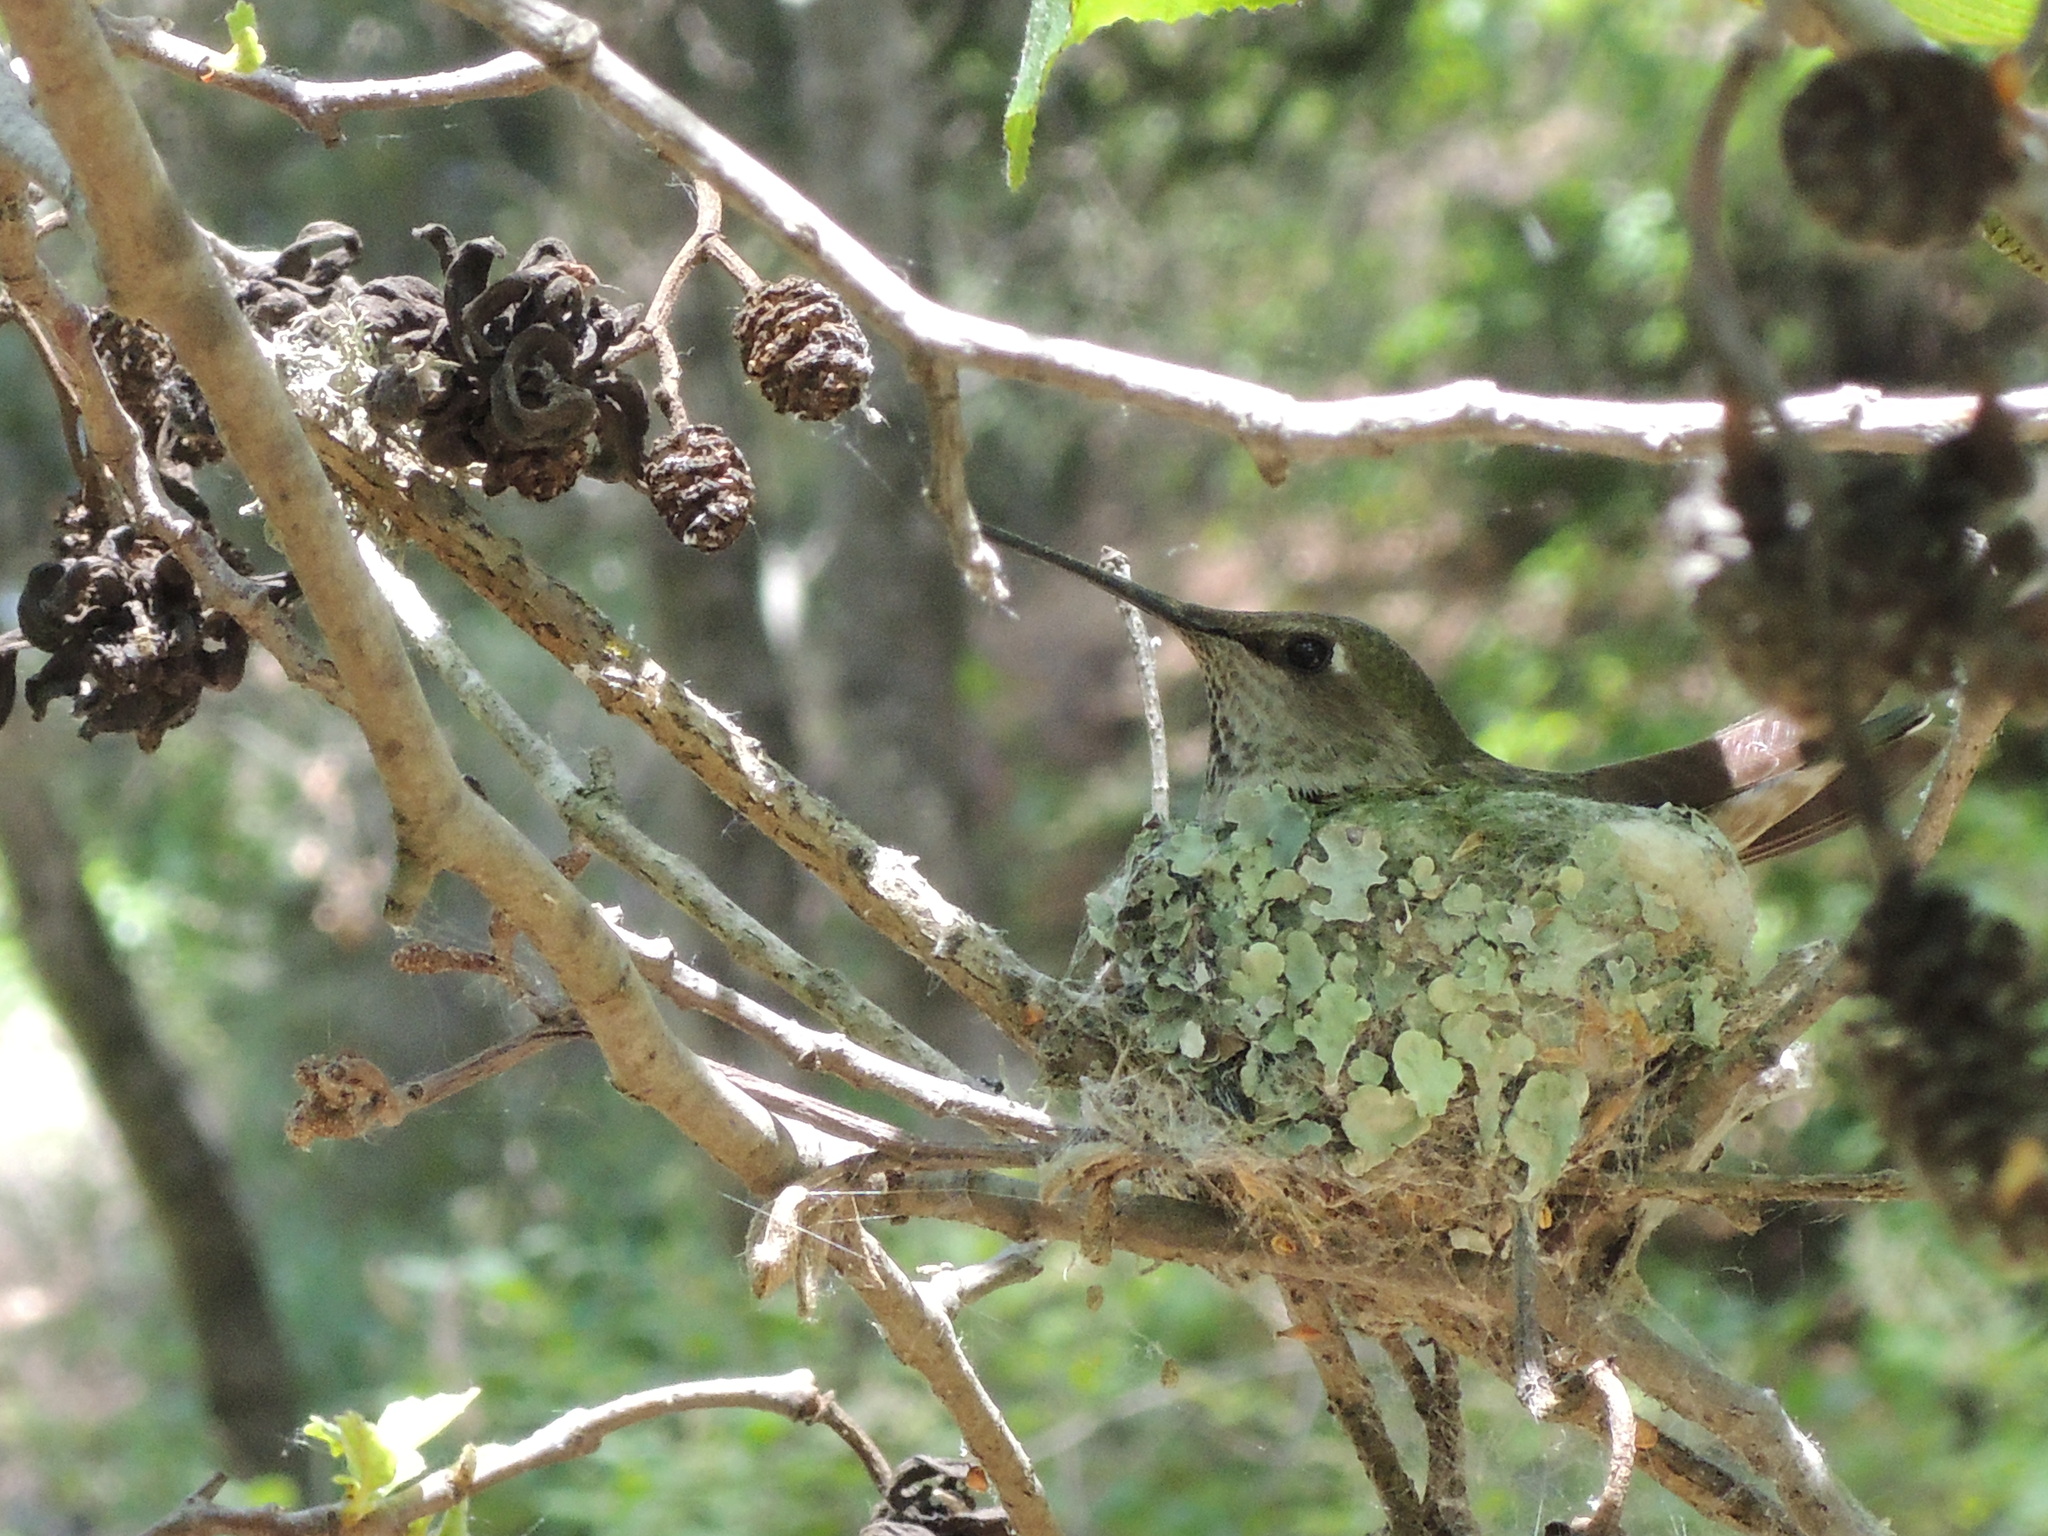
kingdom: Animalia
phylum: Chordata
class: Aves
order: Apodiformes
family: Trochilidae
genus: Calypte
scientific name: Calypte anna
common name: Anna's hummingbird
